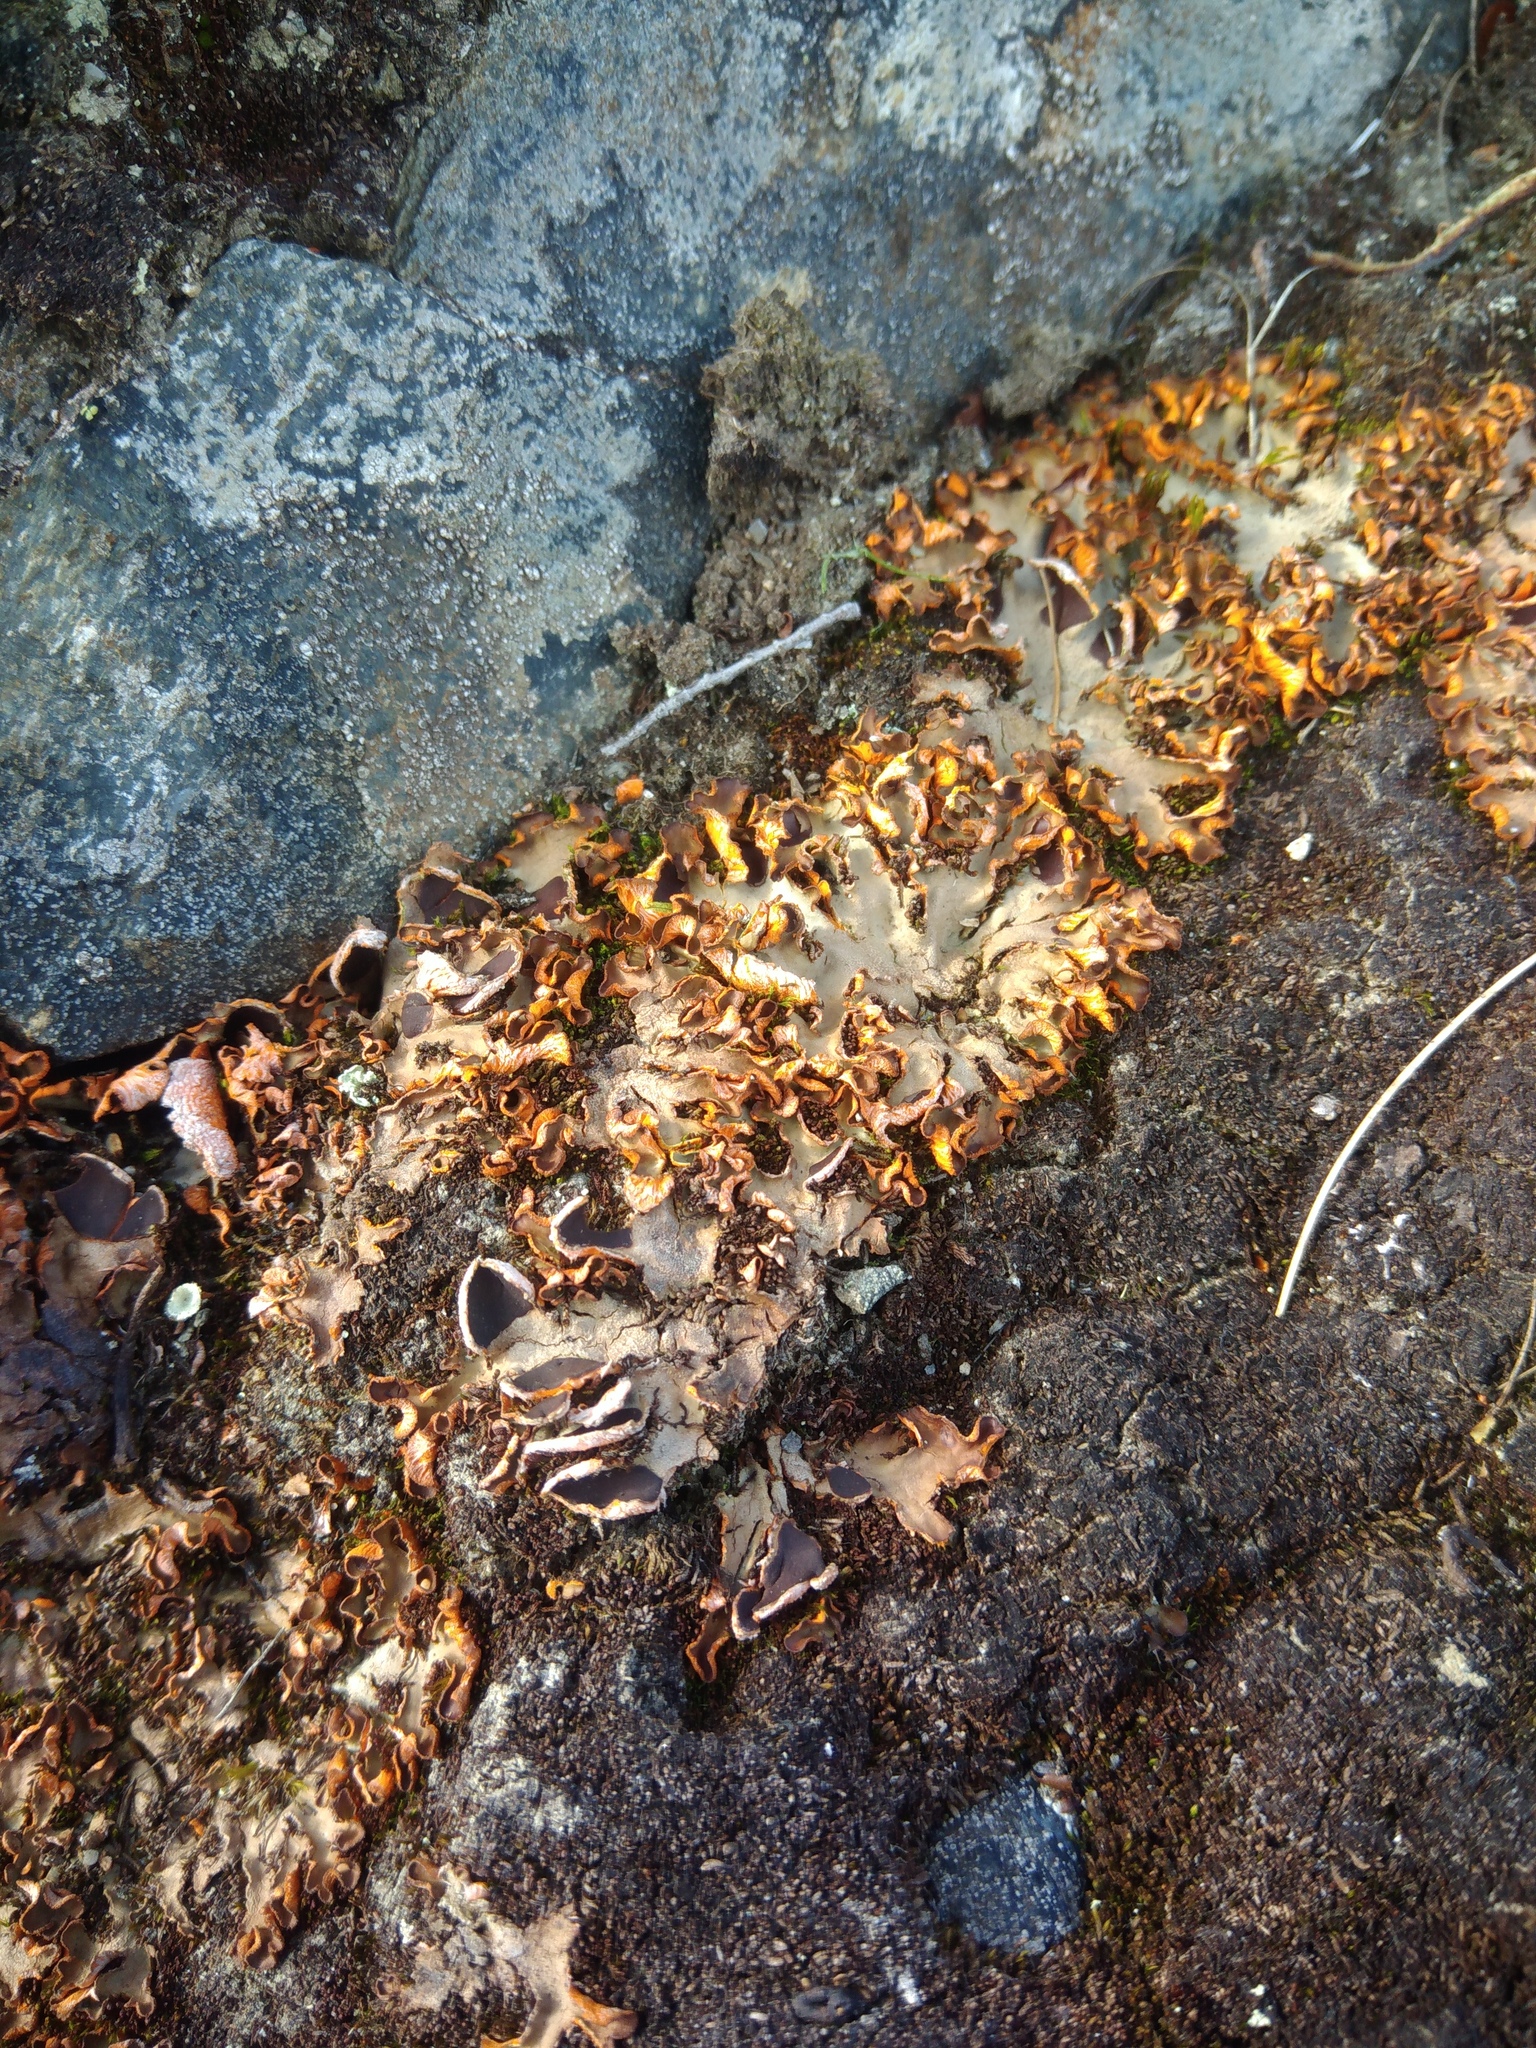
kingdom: Fungi
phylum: Ascomycota
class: Lecanoromycetes
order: Peltigerales
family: Peltigeraceae
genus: Solorina
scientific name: Solorina crocea
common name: Mountain saffron
